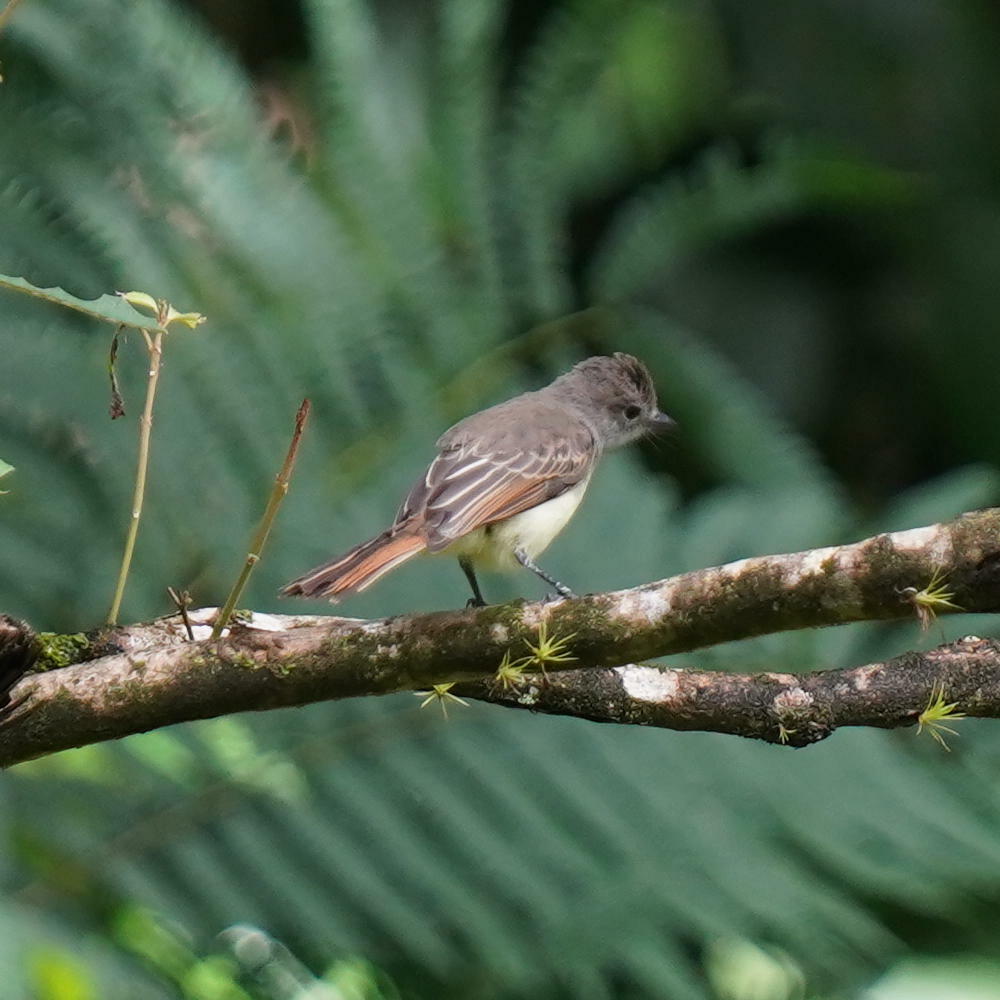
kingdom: Animalia
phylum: Chordata
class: Aves
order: Passeriformes
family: Tyrannidae
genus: Myiarchus
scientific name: Myiarchus panamensis
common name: Panama flycatcher
